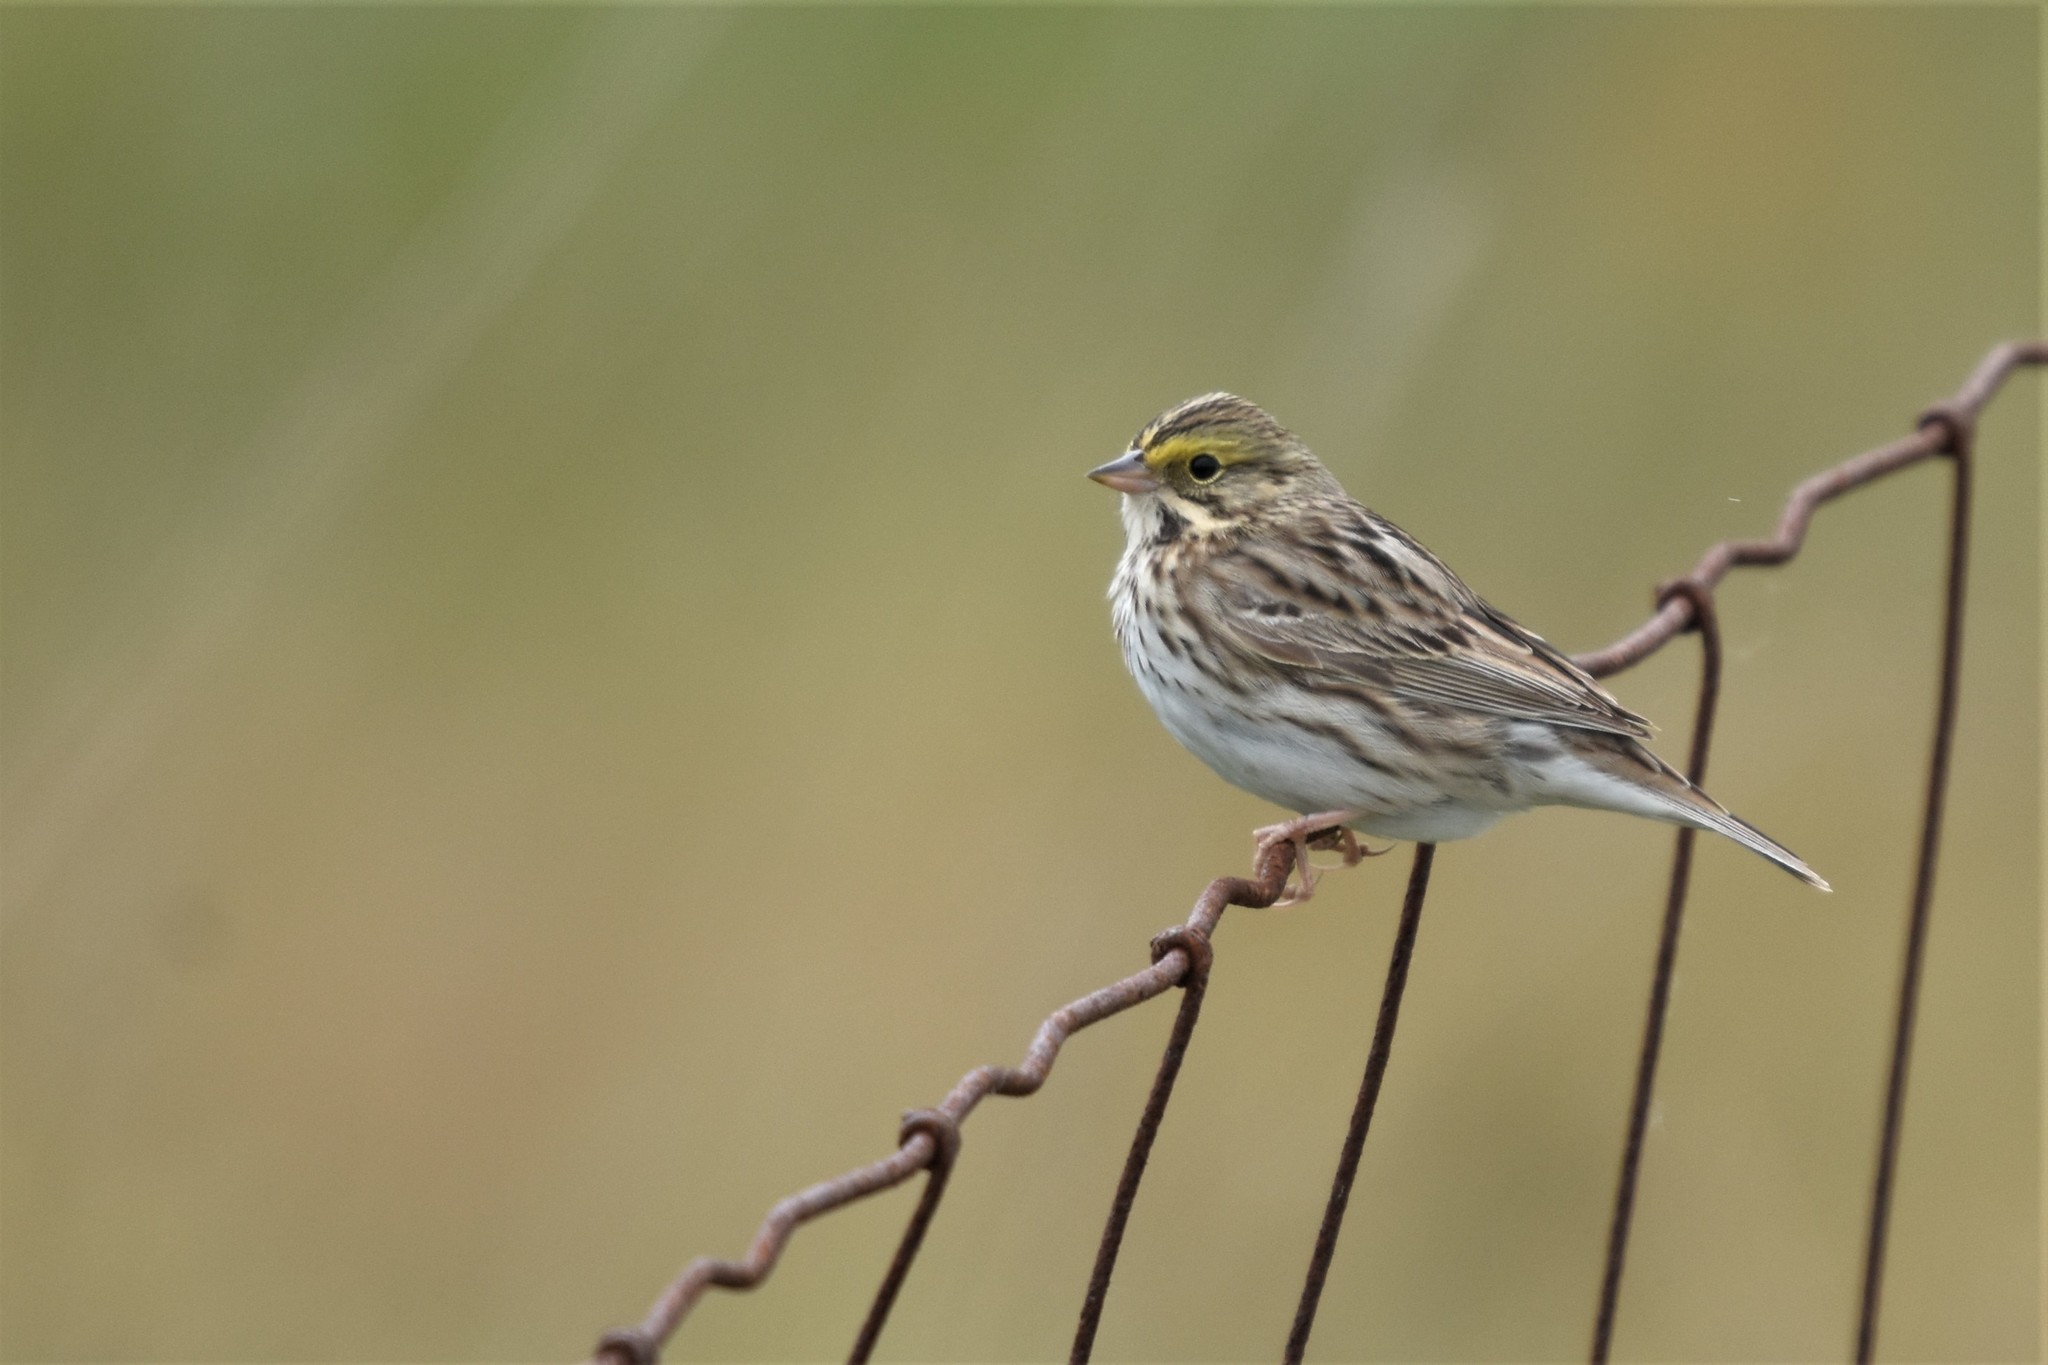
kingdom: Animalia
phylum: Chordata
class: Aves
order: Passeriformes
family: Passerellidae
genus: Passerculus
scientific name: Passerculus sandwichensis
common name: Savannah sparrow
